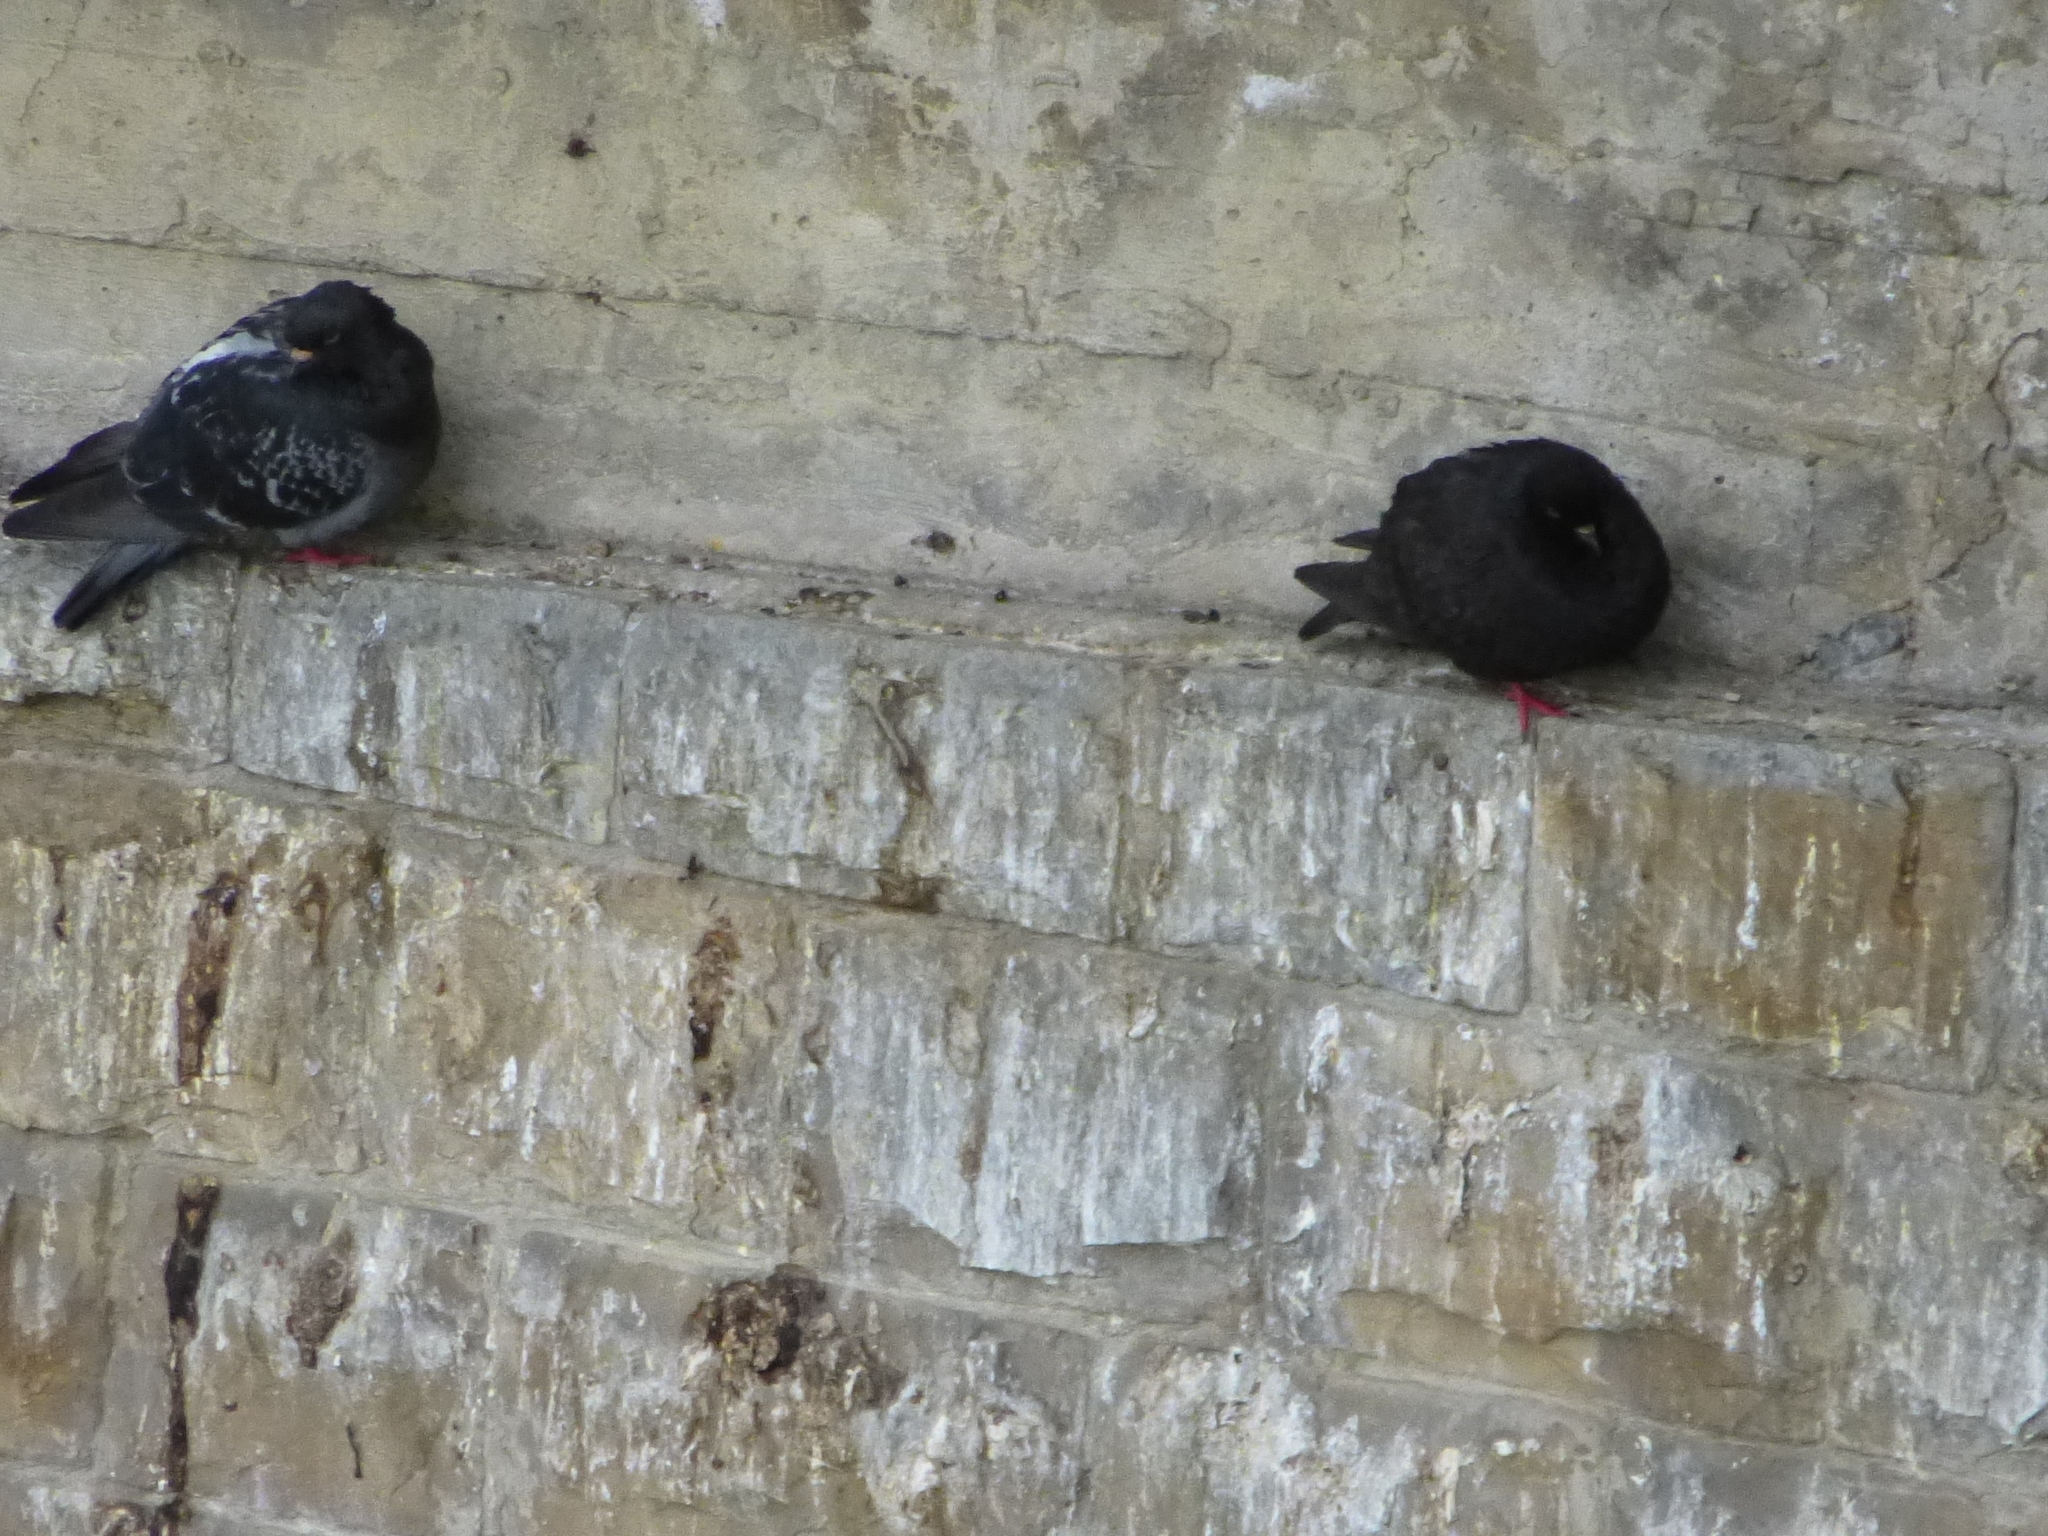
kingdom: Animalia
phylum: Chordata
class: Aves
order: Columbiformes
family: Columbidae
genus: Columba
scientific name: Columba livia
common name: Rock pigeon
